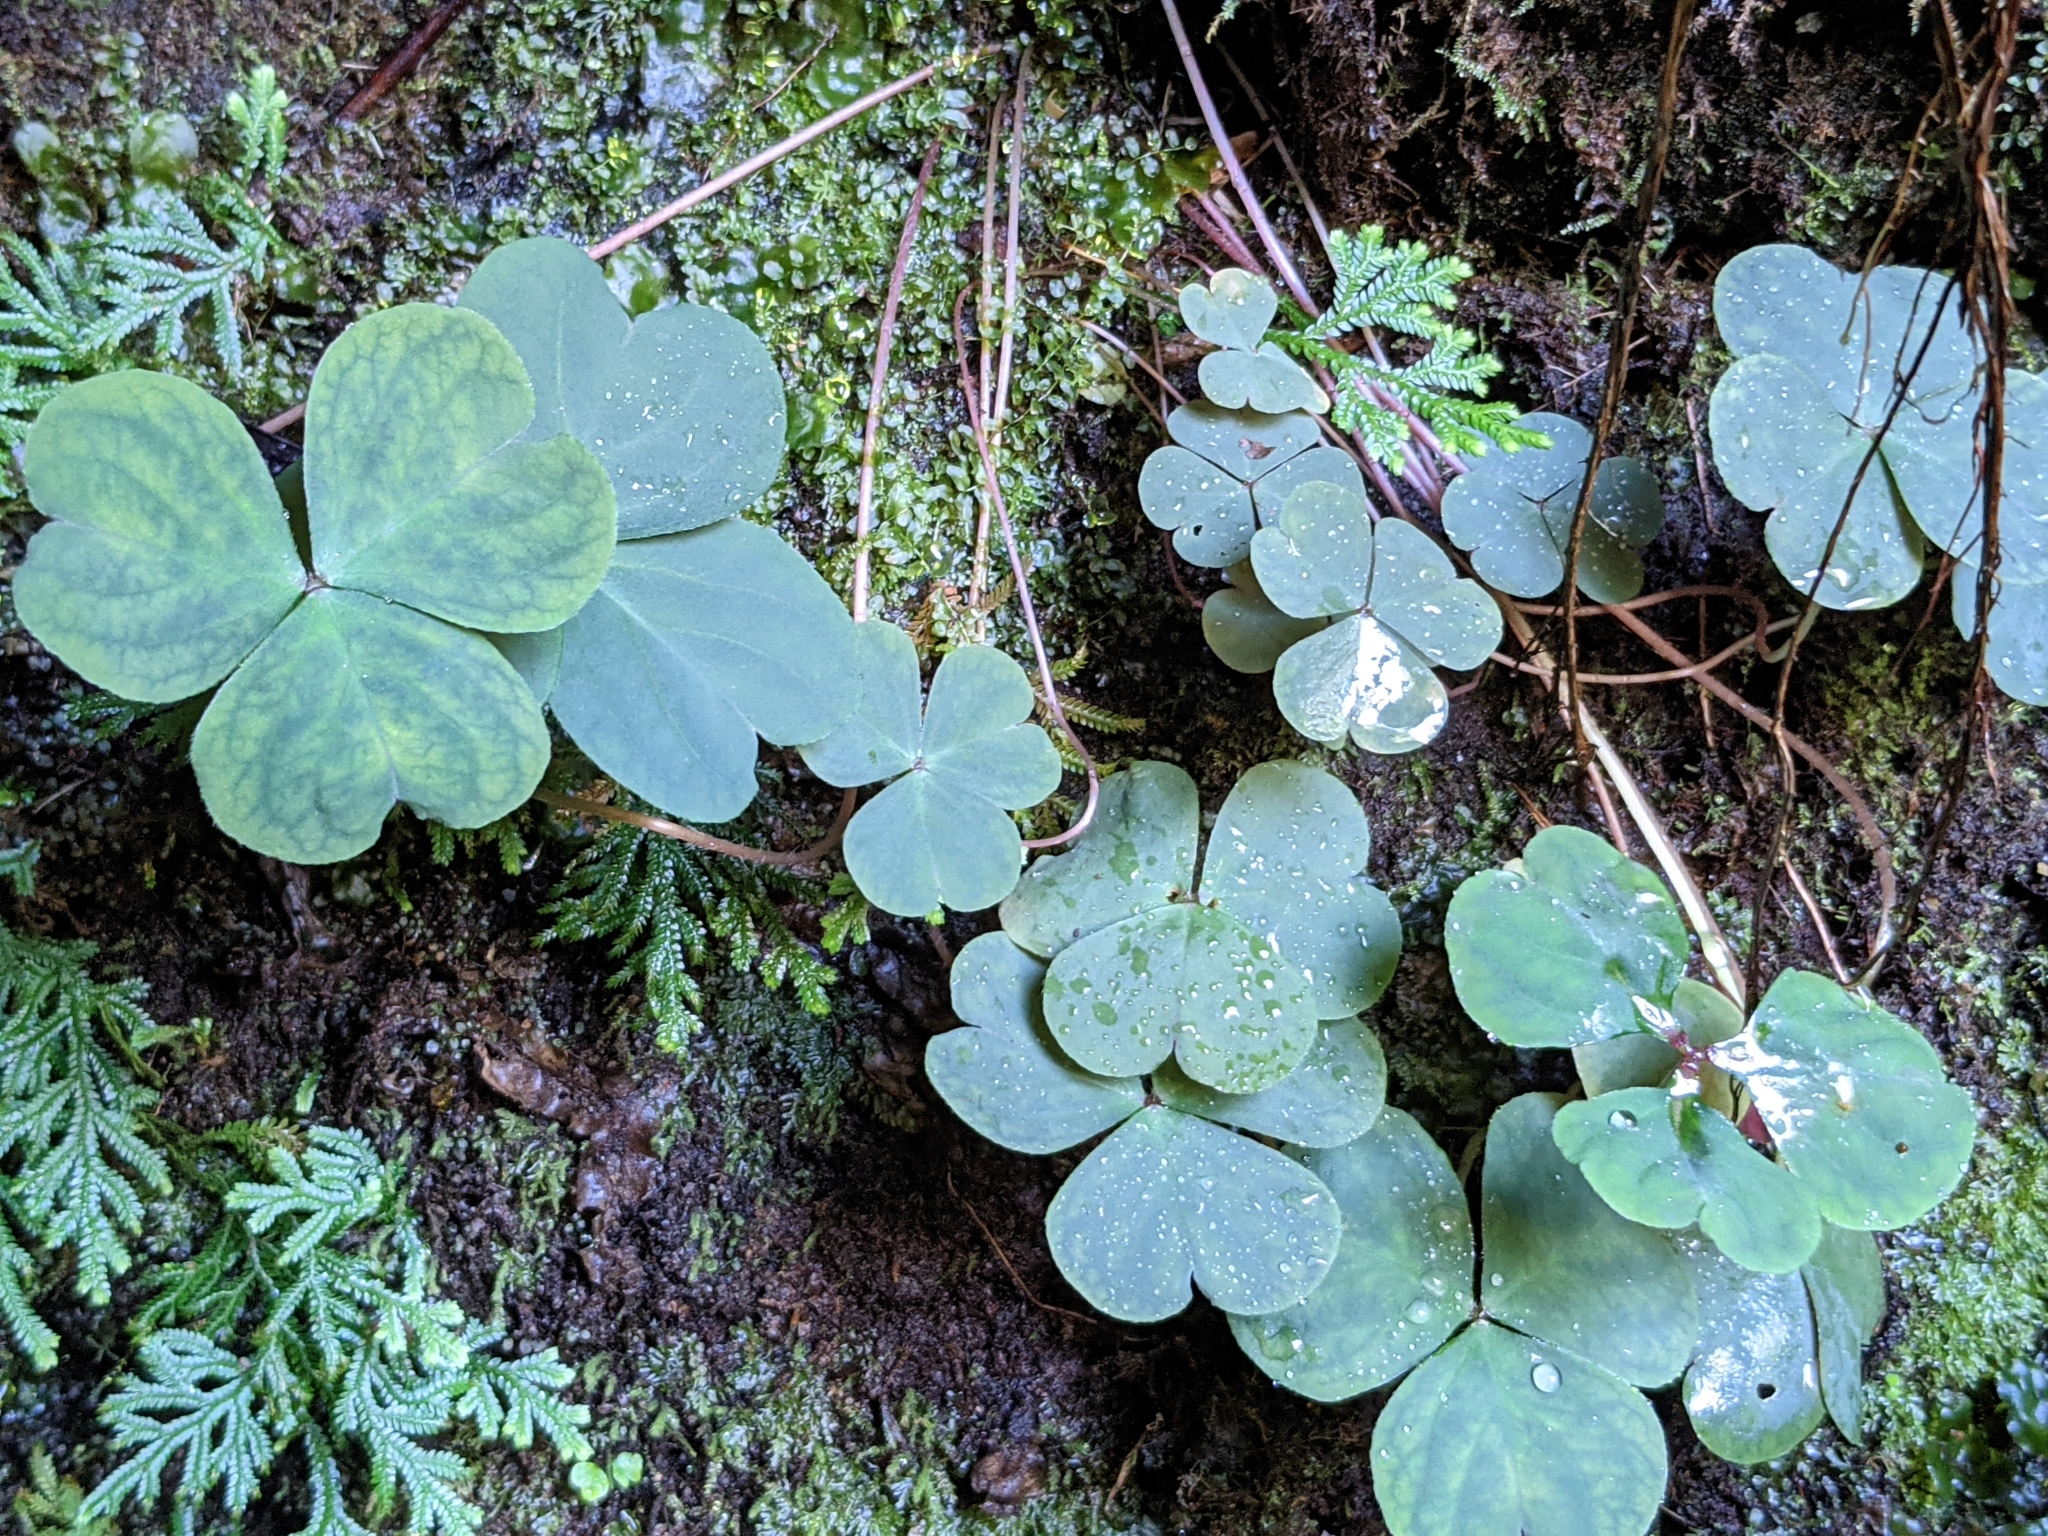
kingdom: Plantae
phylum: Tracheophyta
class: Magnoliopsida
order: Oxalidales
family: Oxalidaceae
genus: Oxalis
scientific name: Oxalis debilis
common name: Large-flowered pink-sorrel
